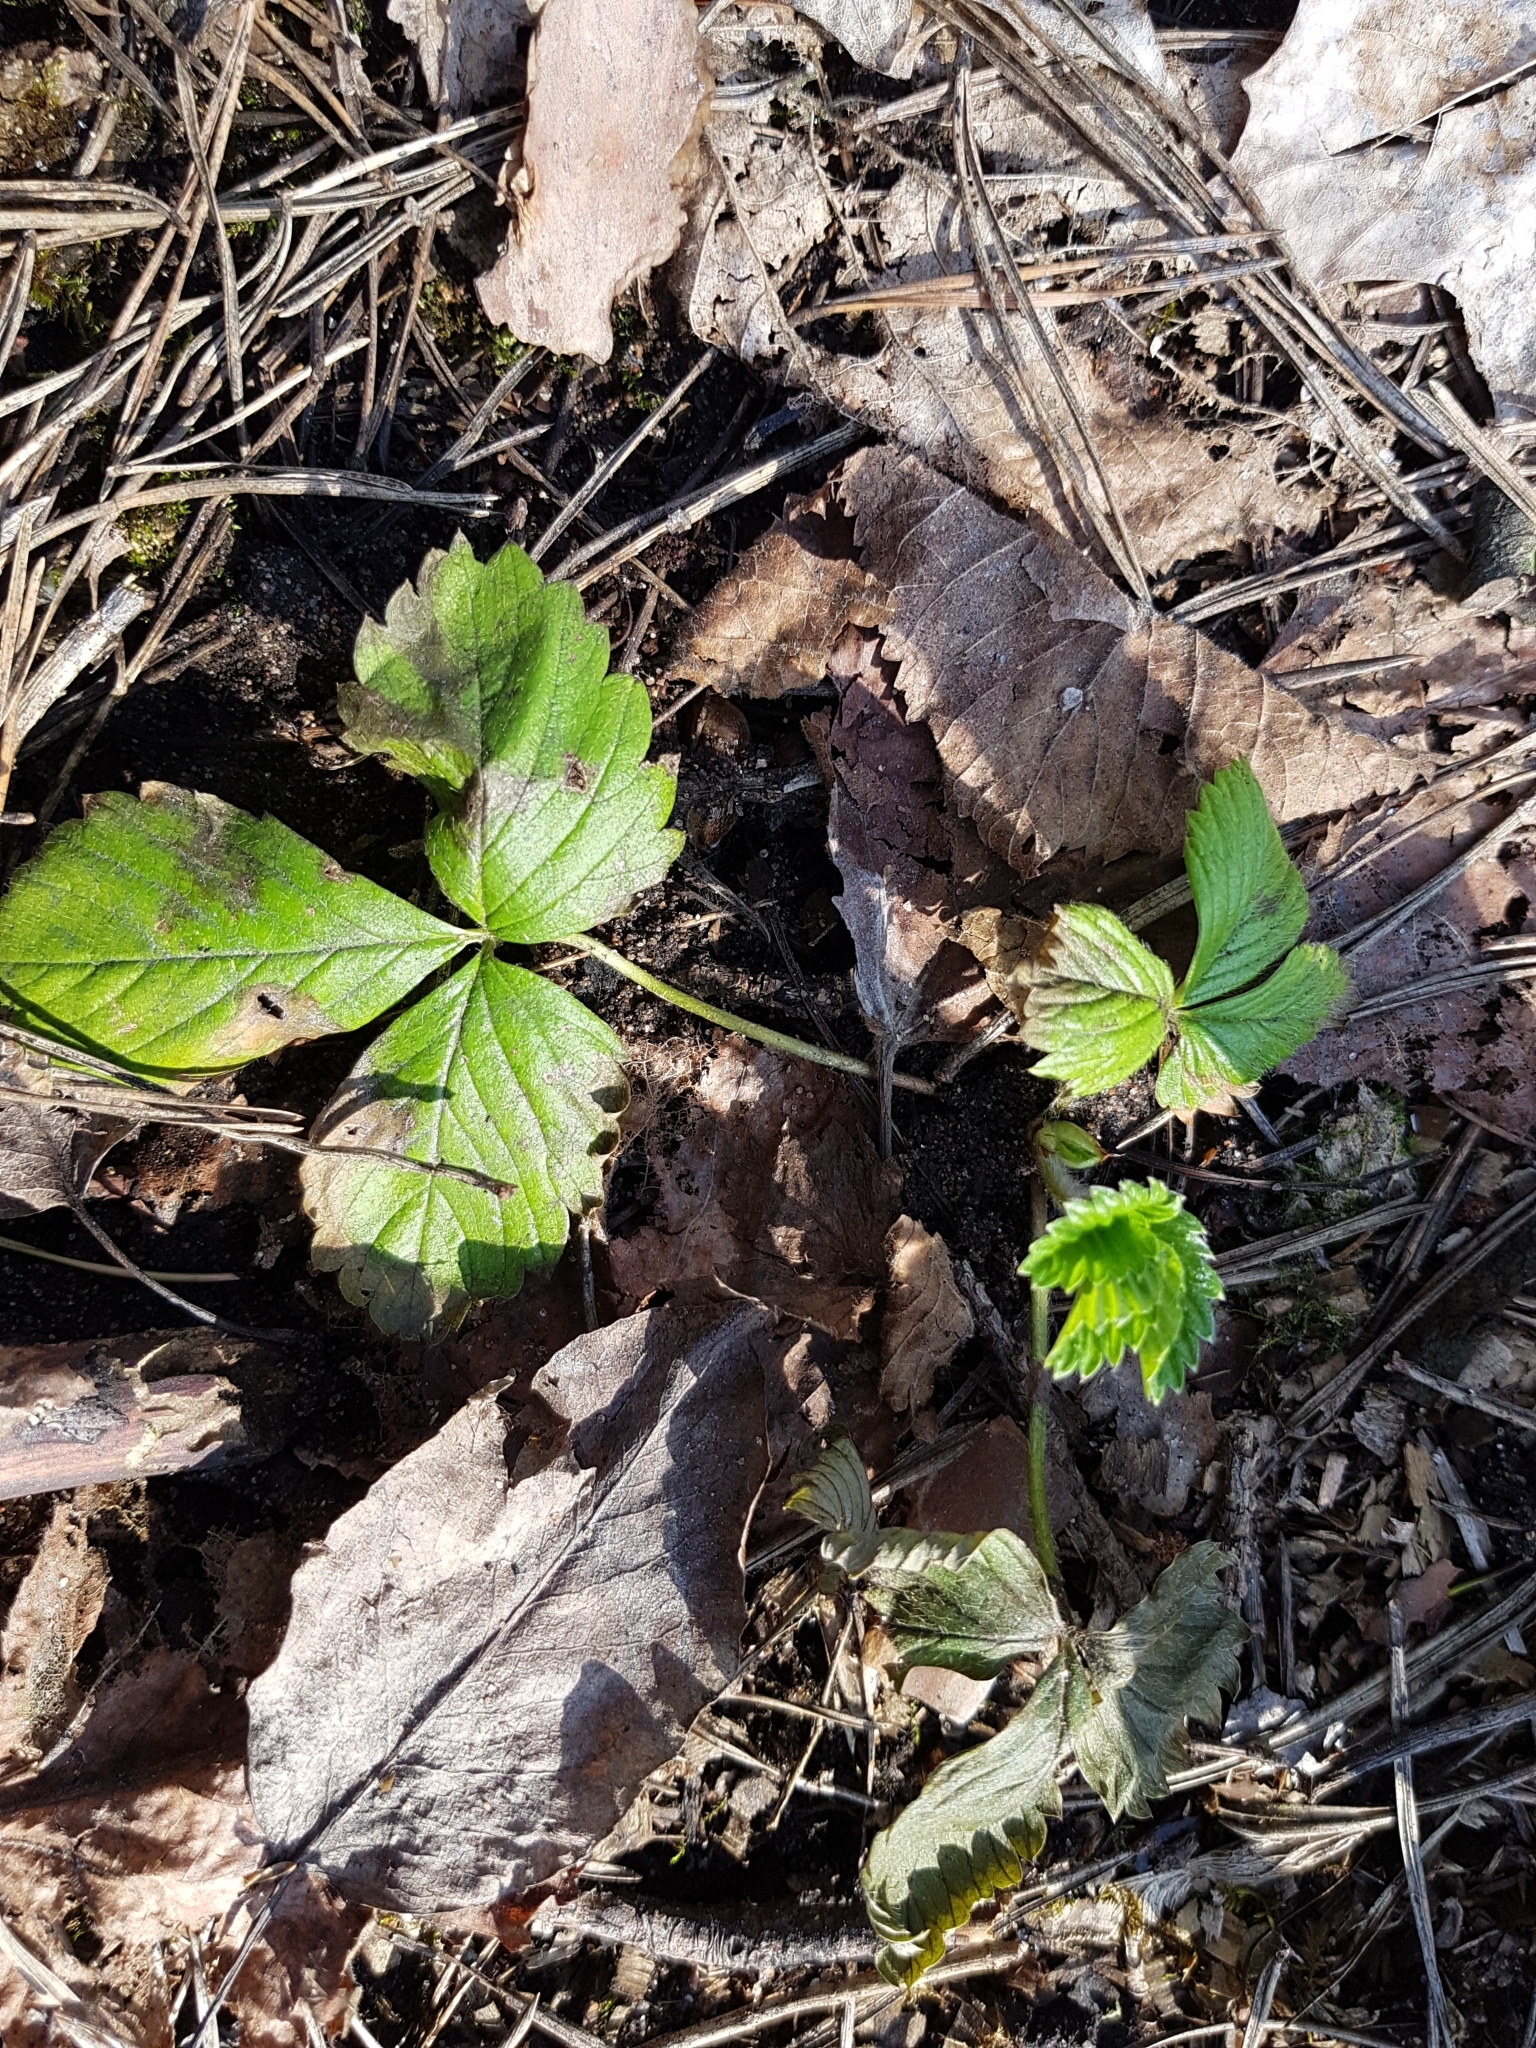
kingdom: Plantae
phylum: Tracheophyta
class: Magnoliopsida
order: Rosales
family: Rosaceae
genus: Fragaria
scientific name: Fragaria vesca
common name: Wild strawberry
